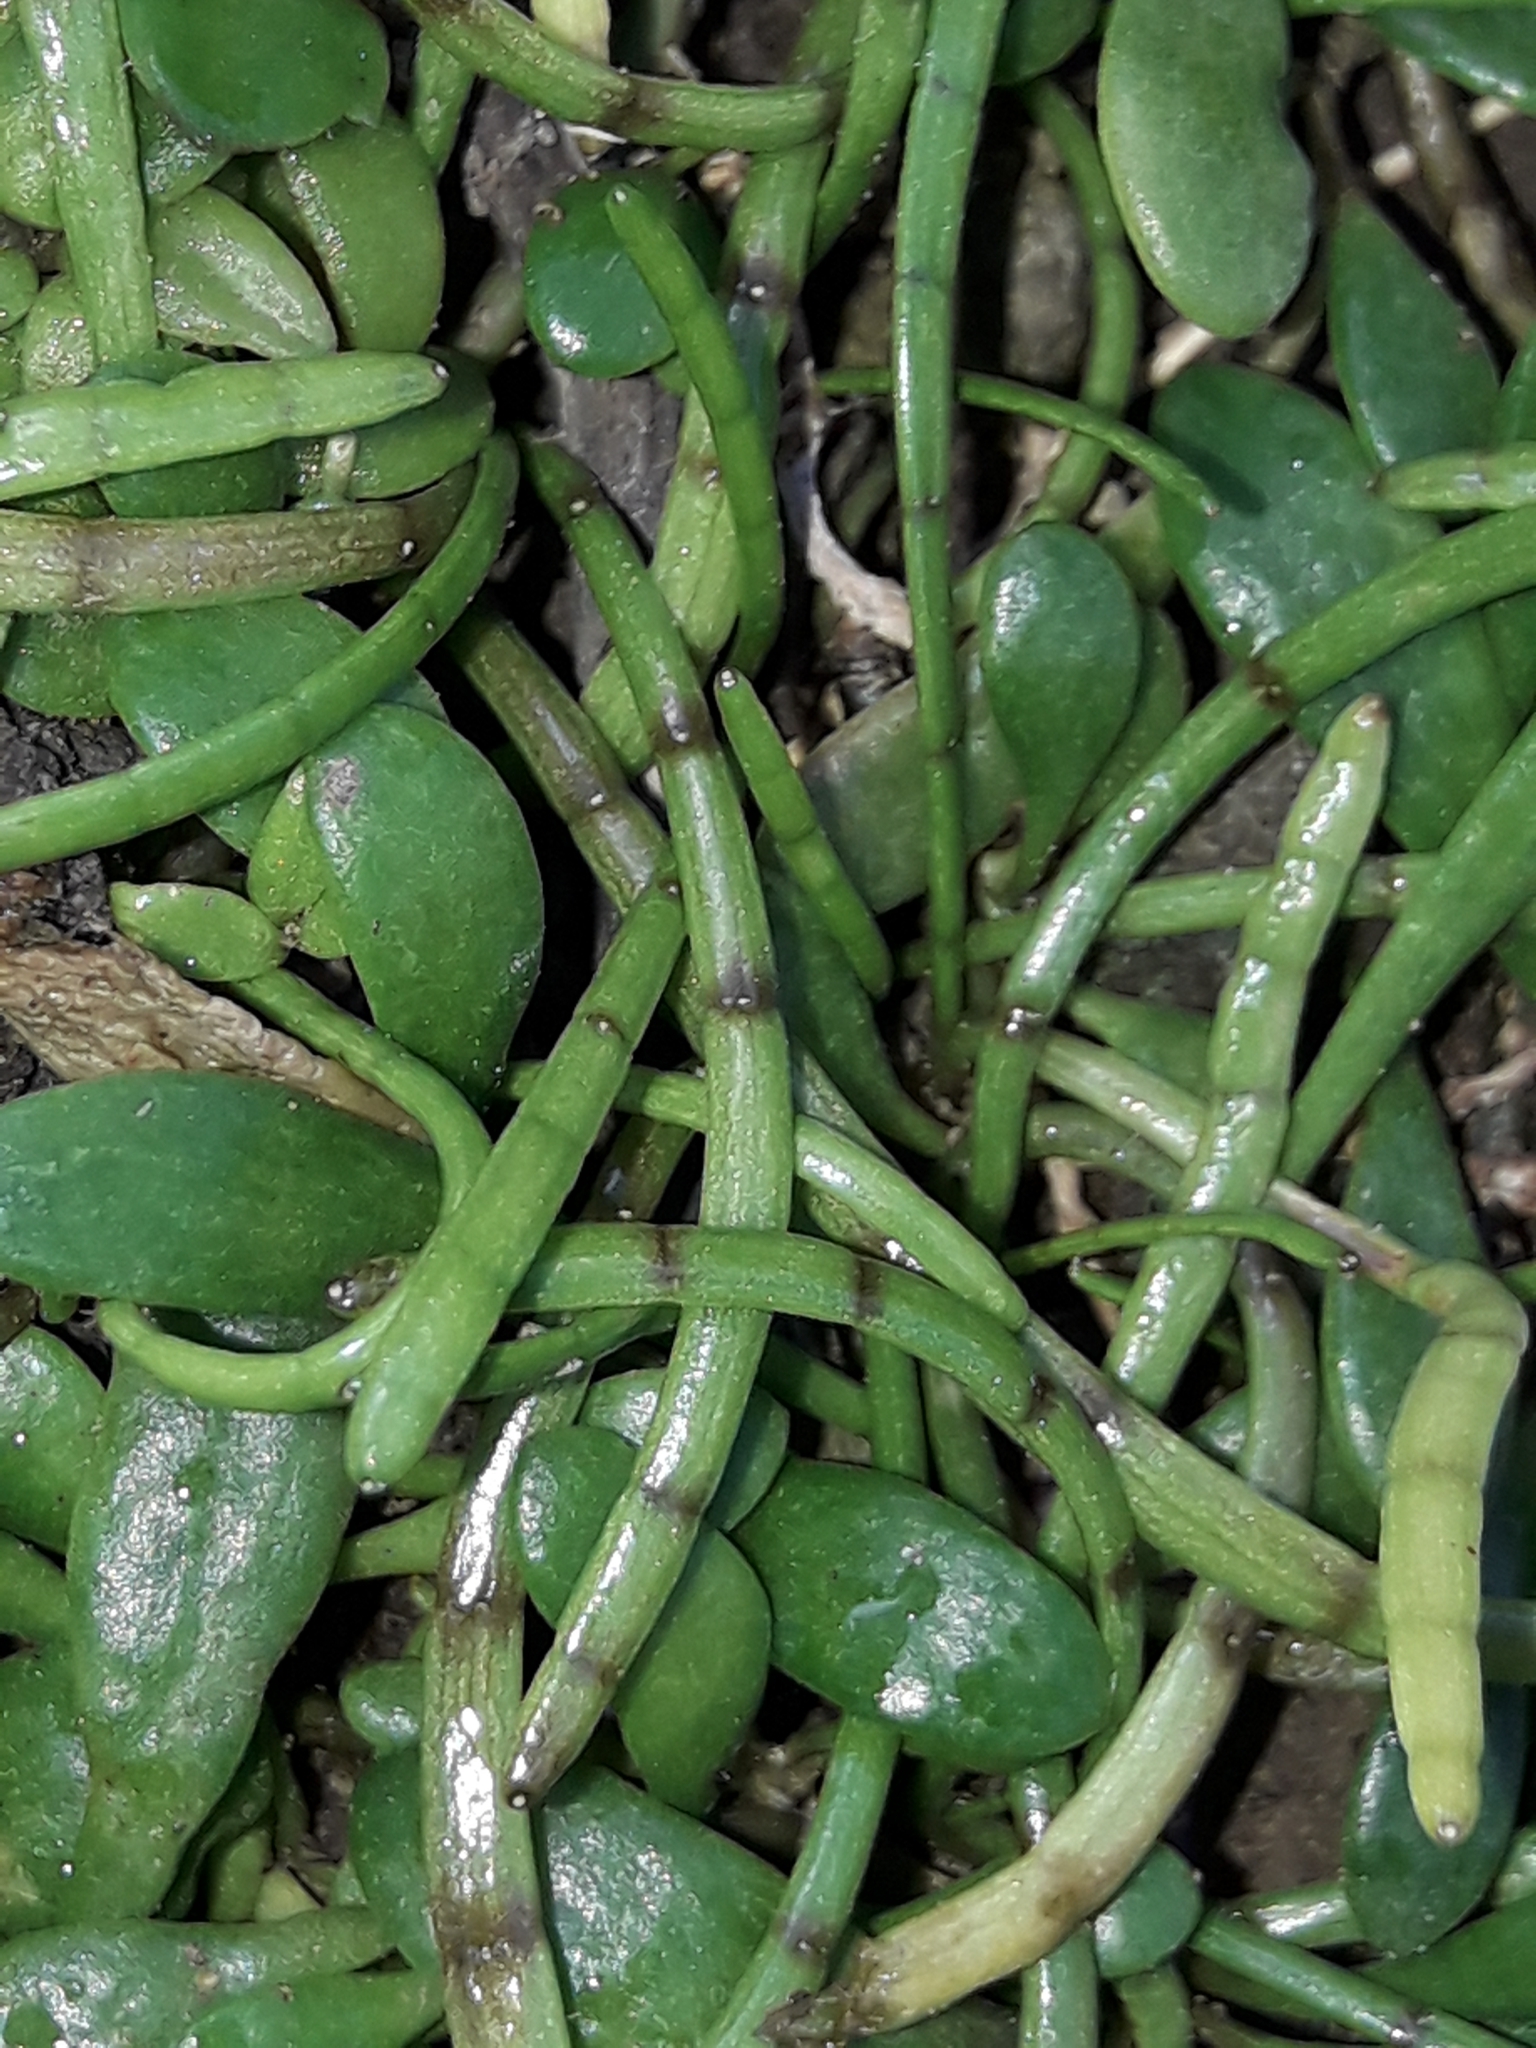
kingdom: Plantae
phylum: Tracheophyta
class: Magnoliopsida
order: Apiales
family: Apiaceae
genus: Lilaeopsis
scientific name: Lilaeopsis novae-zelandiae
